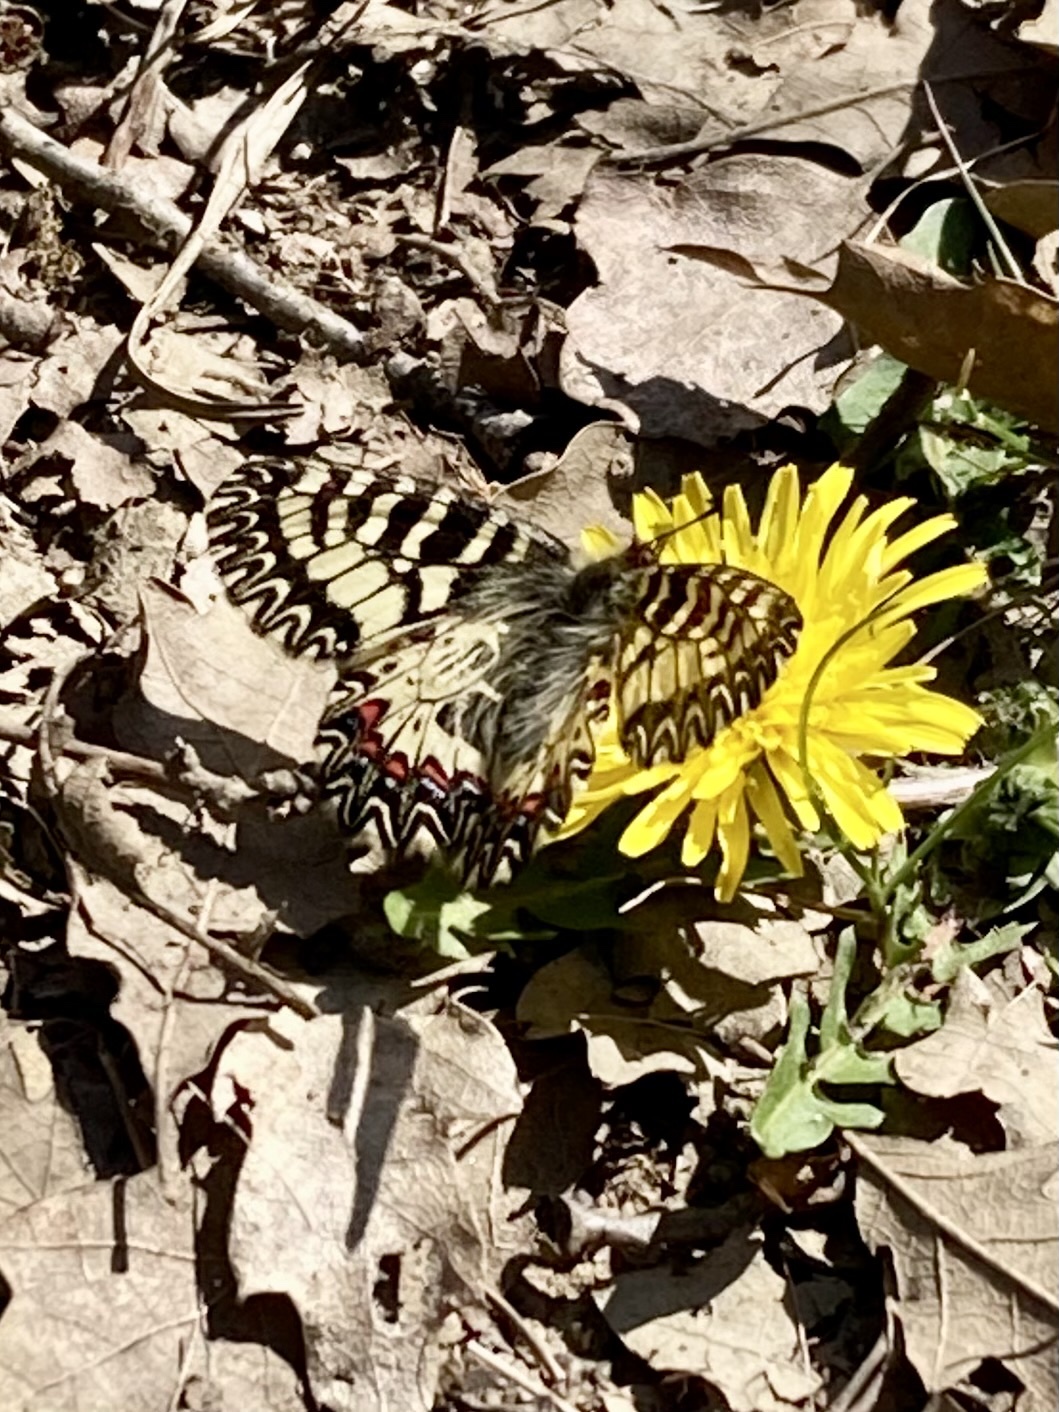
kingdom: Animalia
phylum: Arthropoda
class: Insecta
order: Lepidoptera
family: Papilionidae
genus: Zerynthia
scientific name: Zerynthia cassandra
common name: Italian festoon
